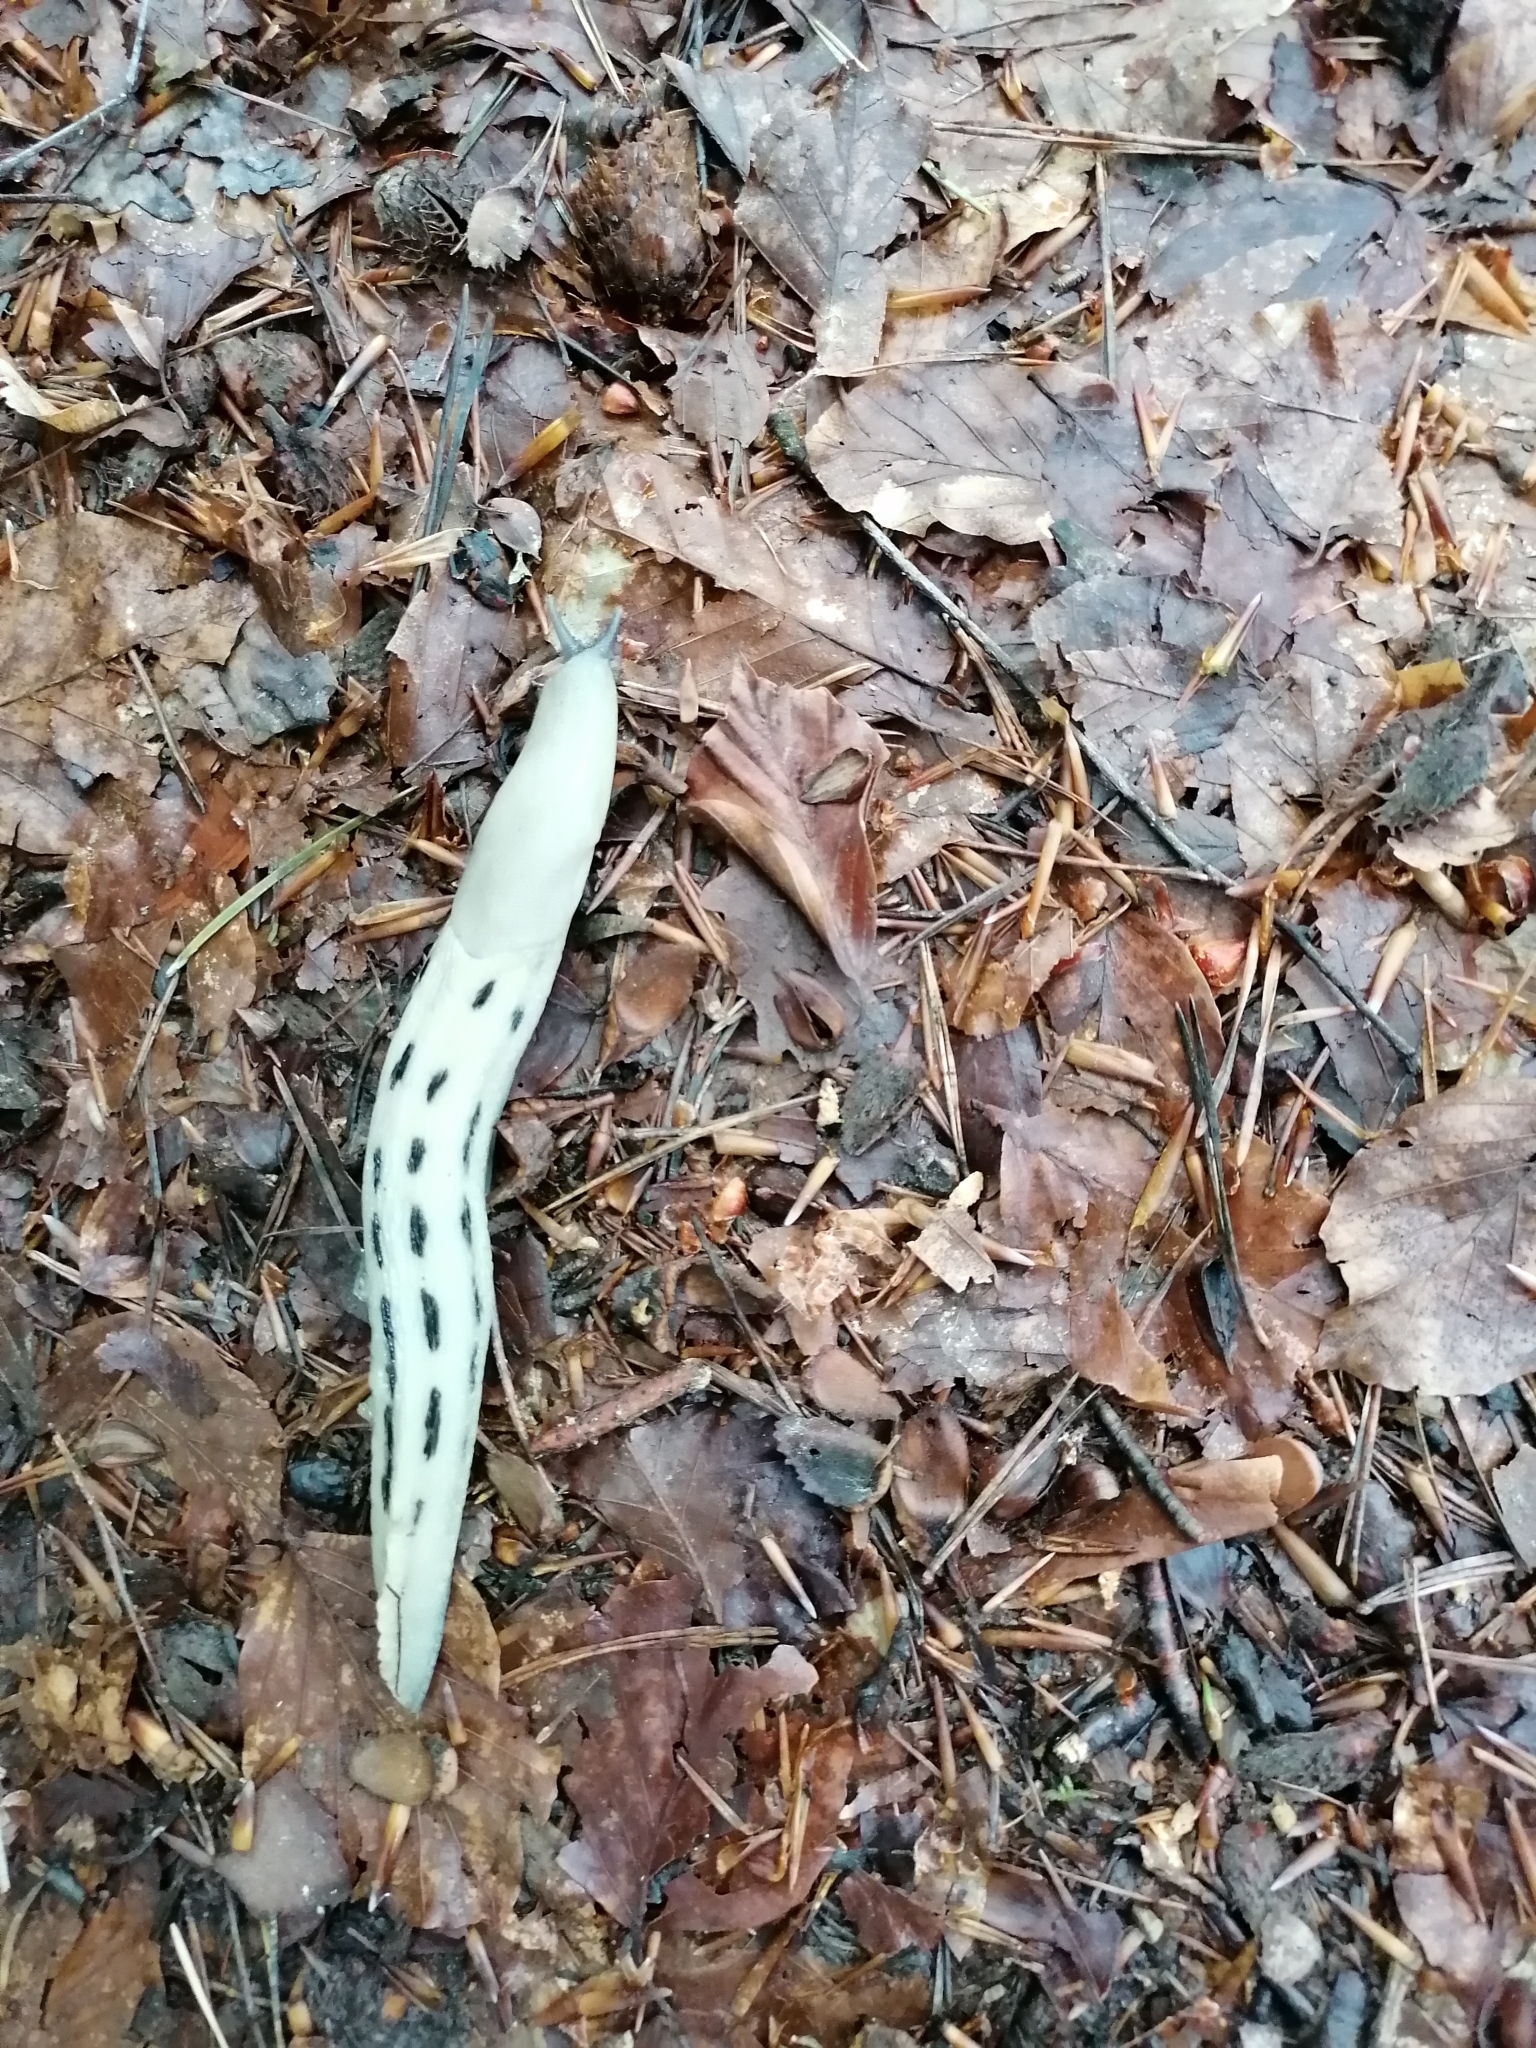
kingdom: Animalia
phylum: Mollusca
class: Gastropoda
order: Stylommatophora
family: Limacidae
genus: Limax
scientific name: Limax cinereoniger
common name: Ash-black slug
